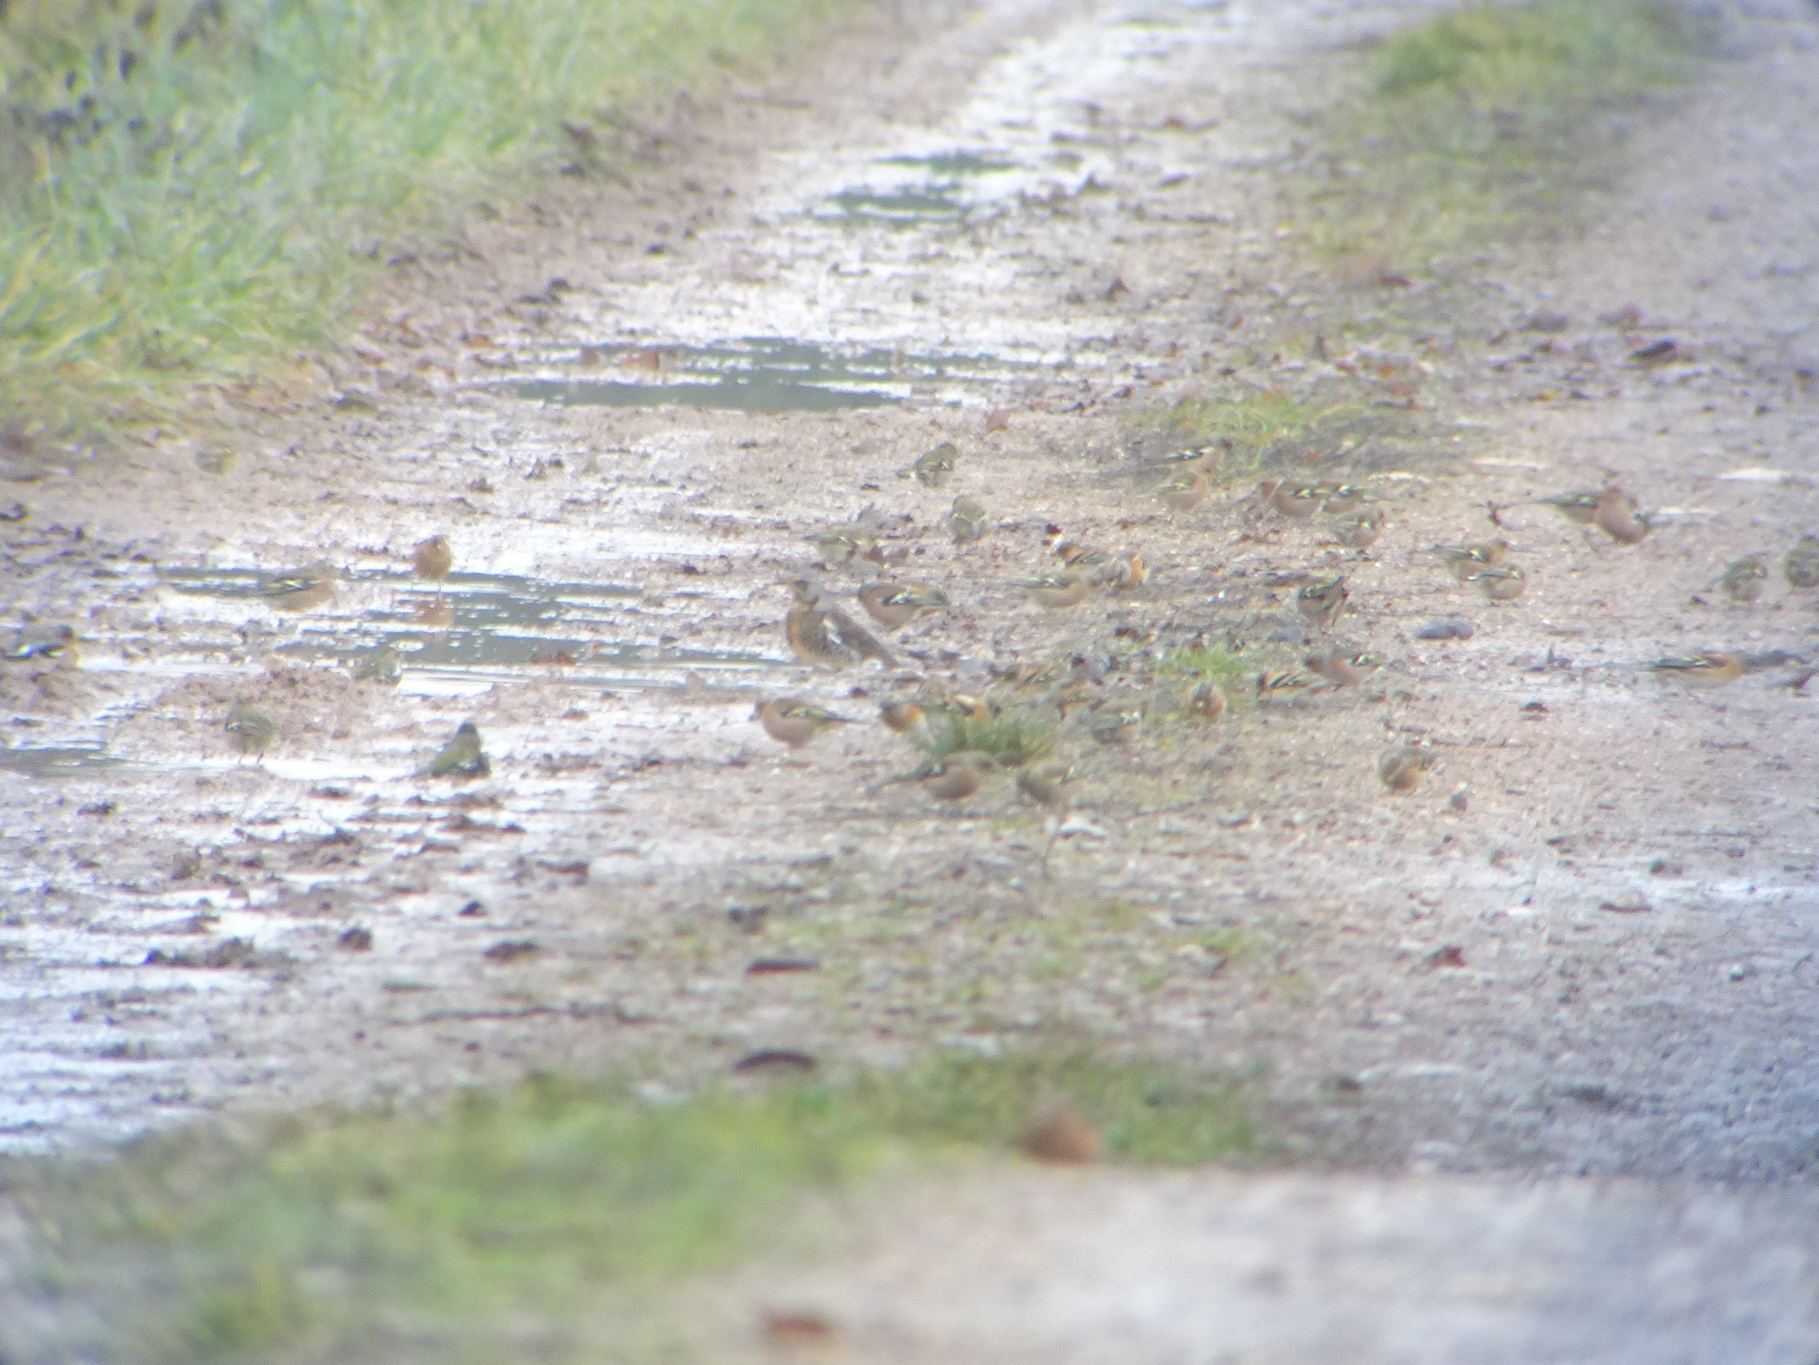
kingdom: Animalia
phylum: Chordata
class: Aves
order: Passeriformes
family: Fringillidae
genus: Fringilla
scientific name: Fringilla montifringilla
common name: Brambling
